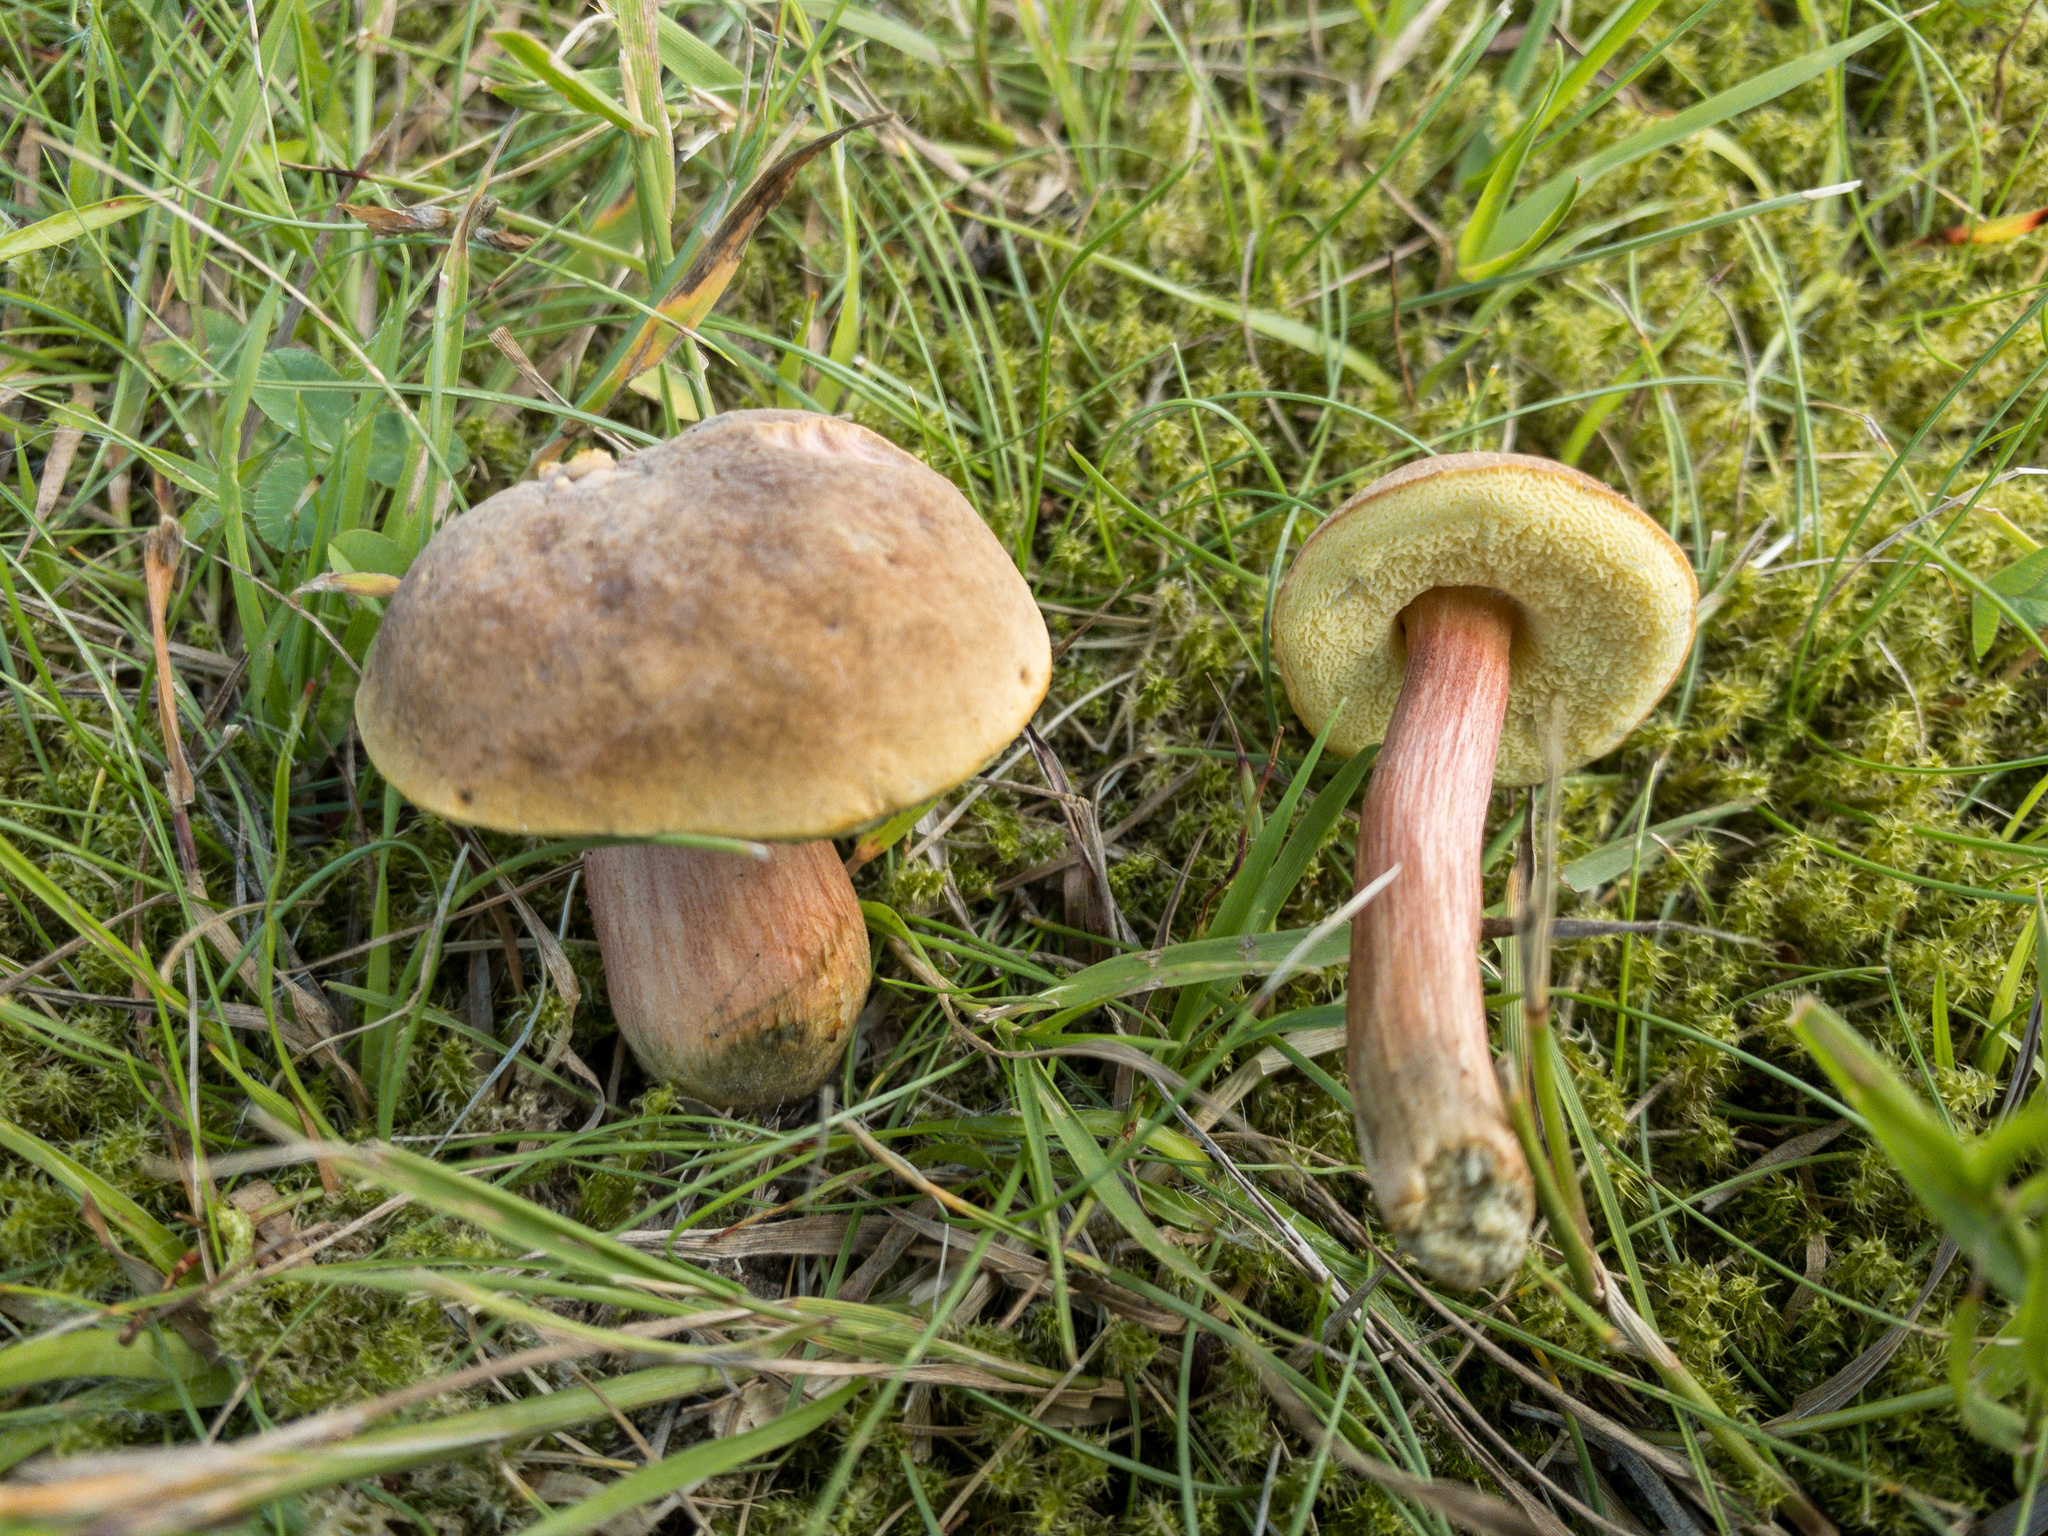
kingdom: Fungi
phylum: Basidiomycota
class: Agaricomycetes
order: Boletales
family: Boletaceae
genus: Hortiboletus
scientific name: Hortiboletus bubalinus
